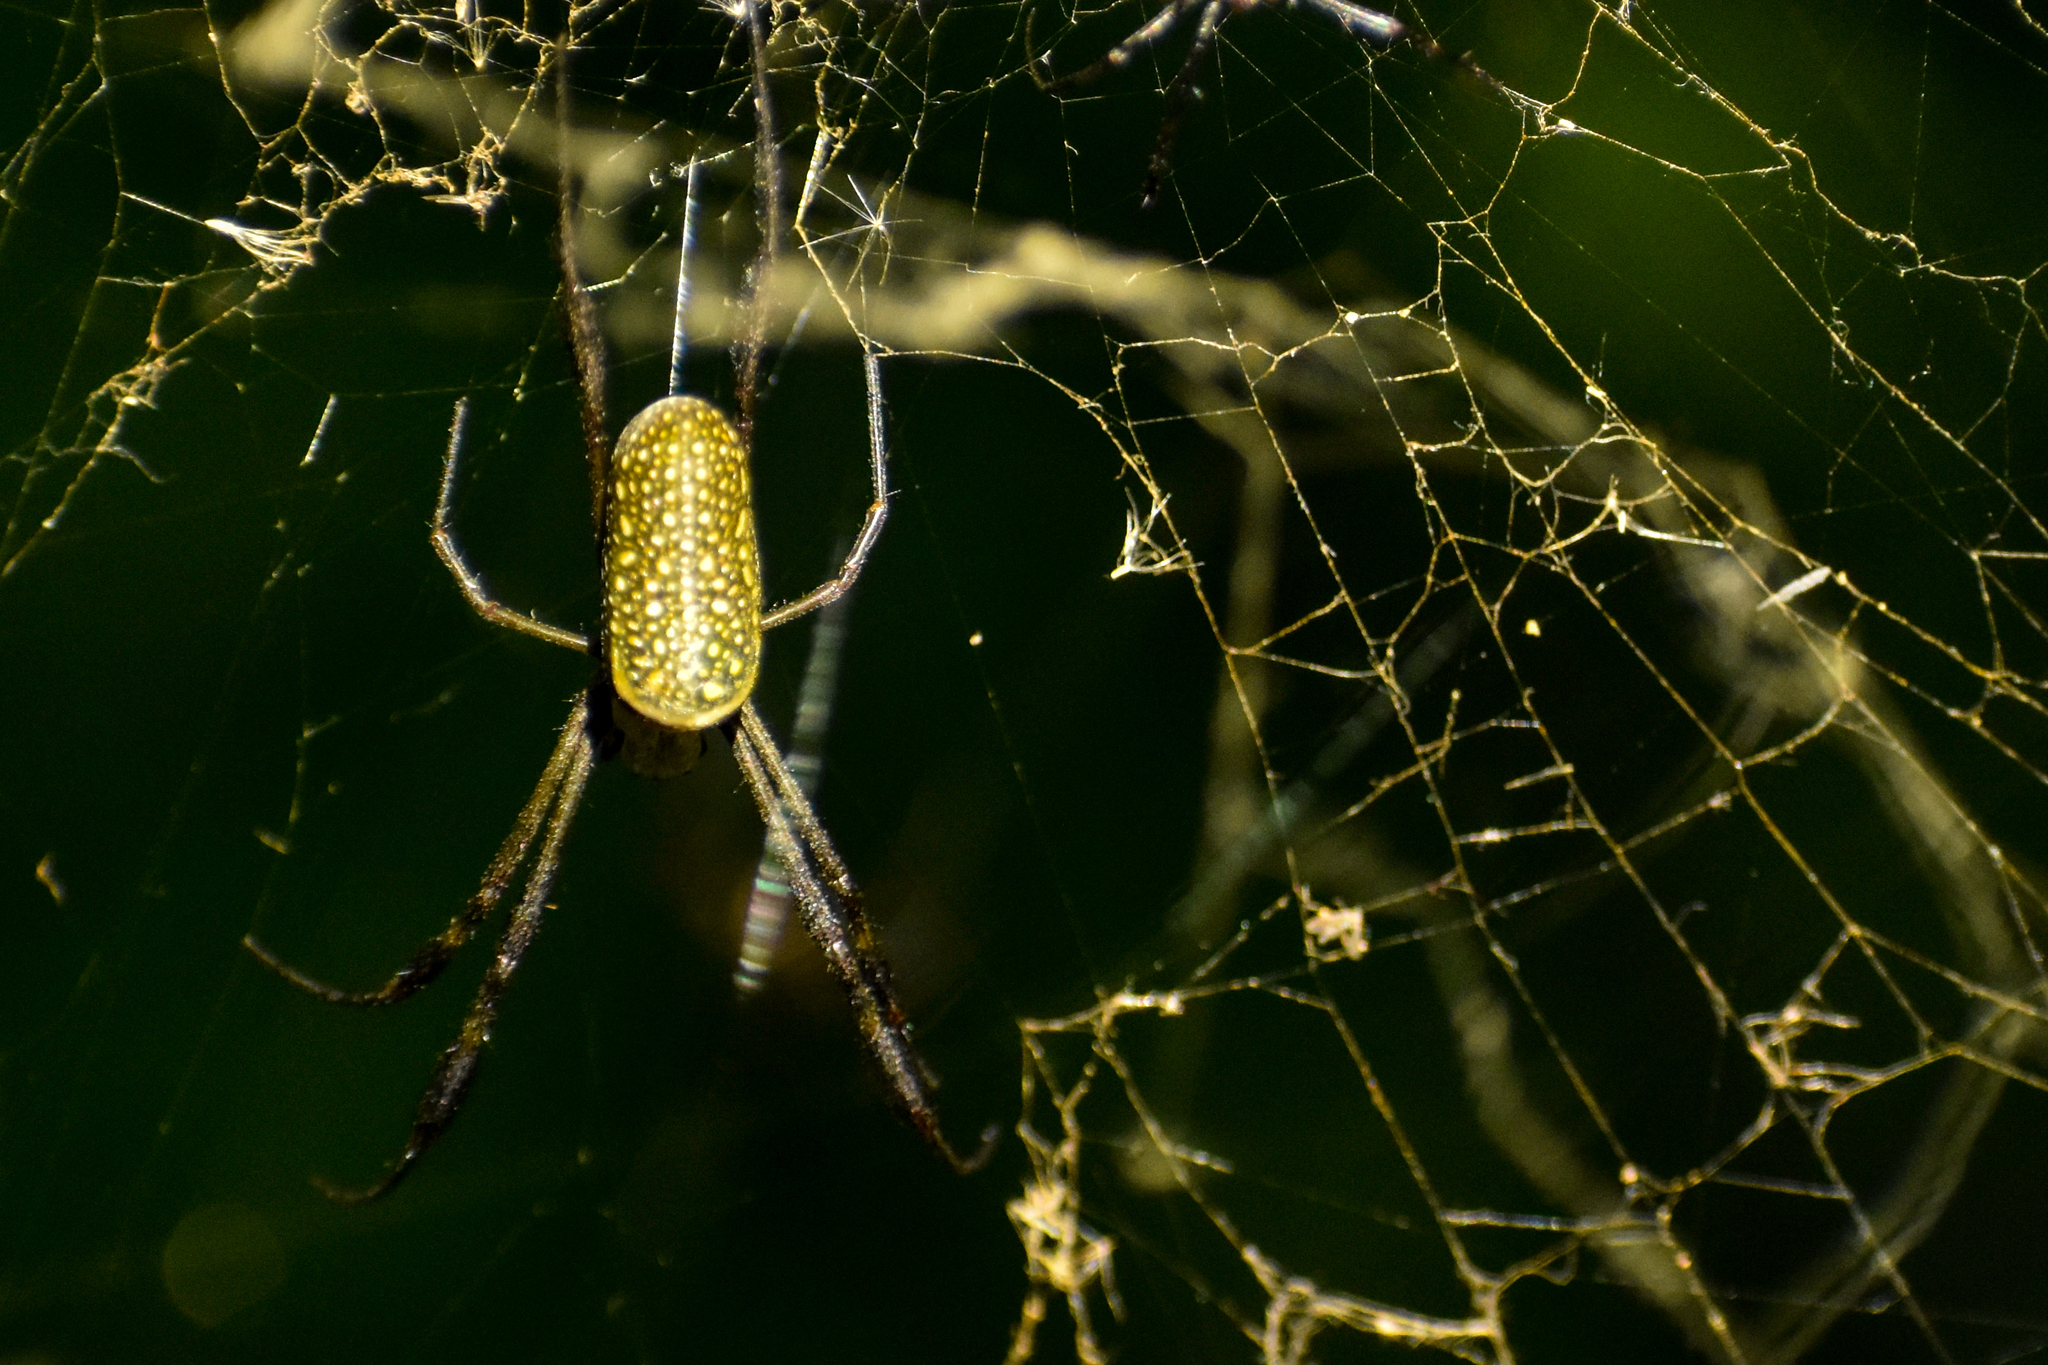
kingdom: Animalia
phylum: Arthropoda
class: Arachnida
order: Araneae
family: Araneidae
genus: Trichonephila
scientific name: Trichonephila clavipes
